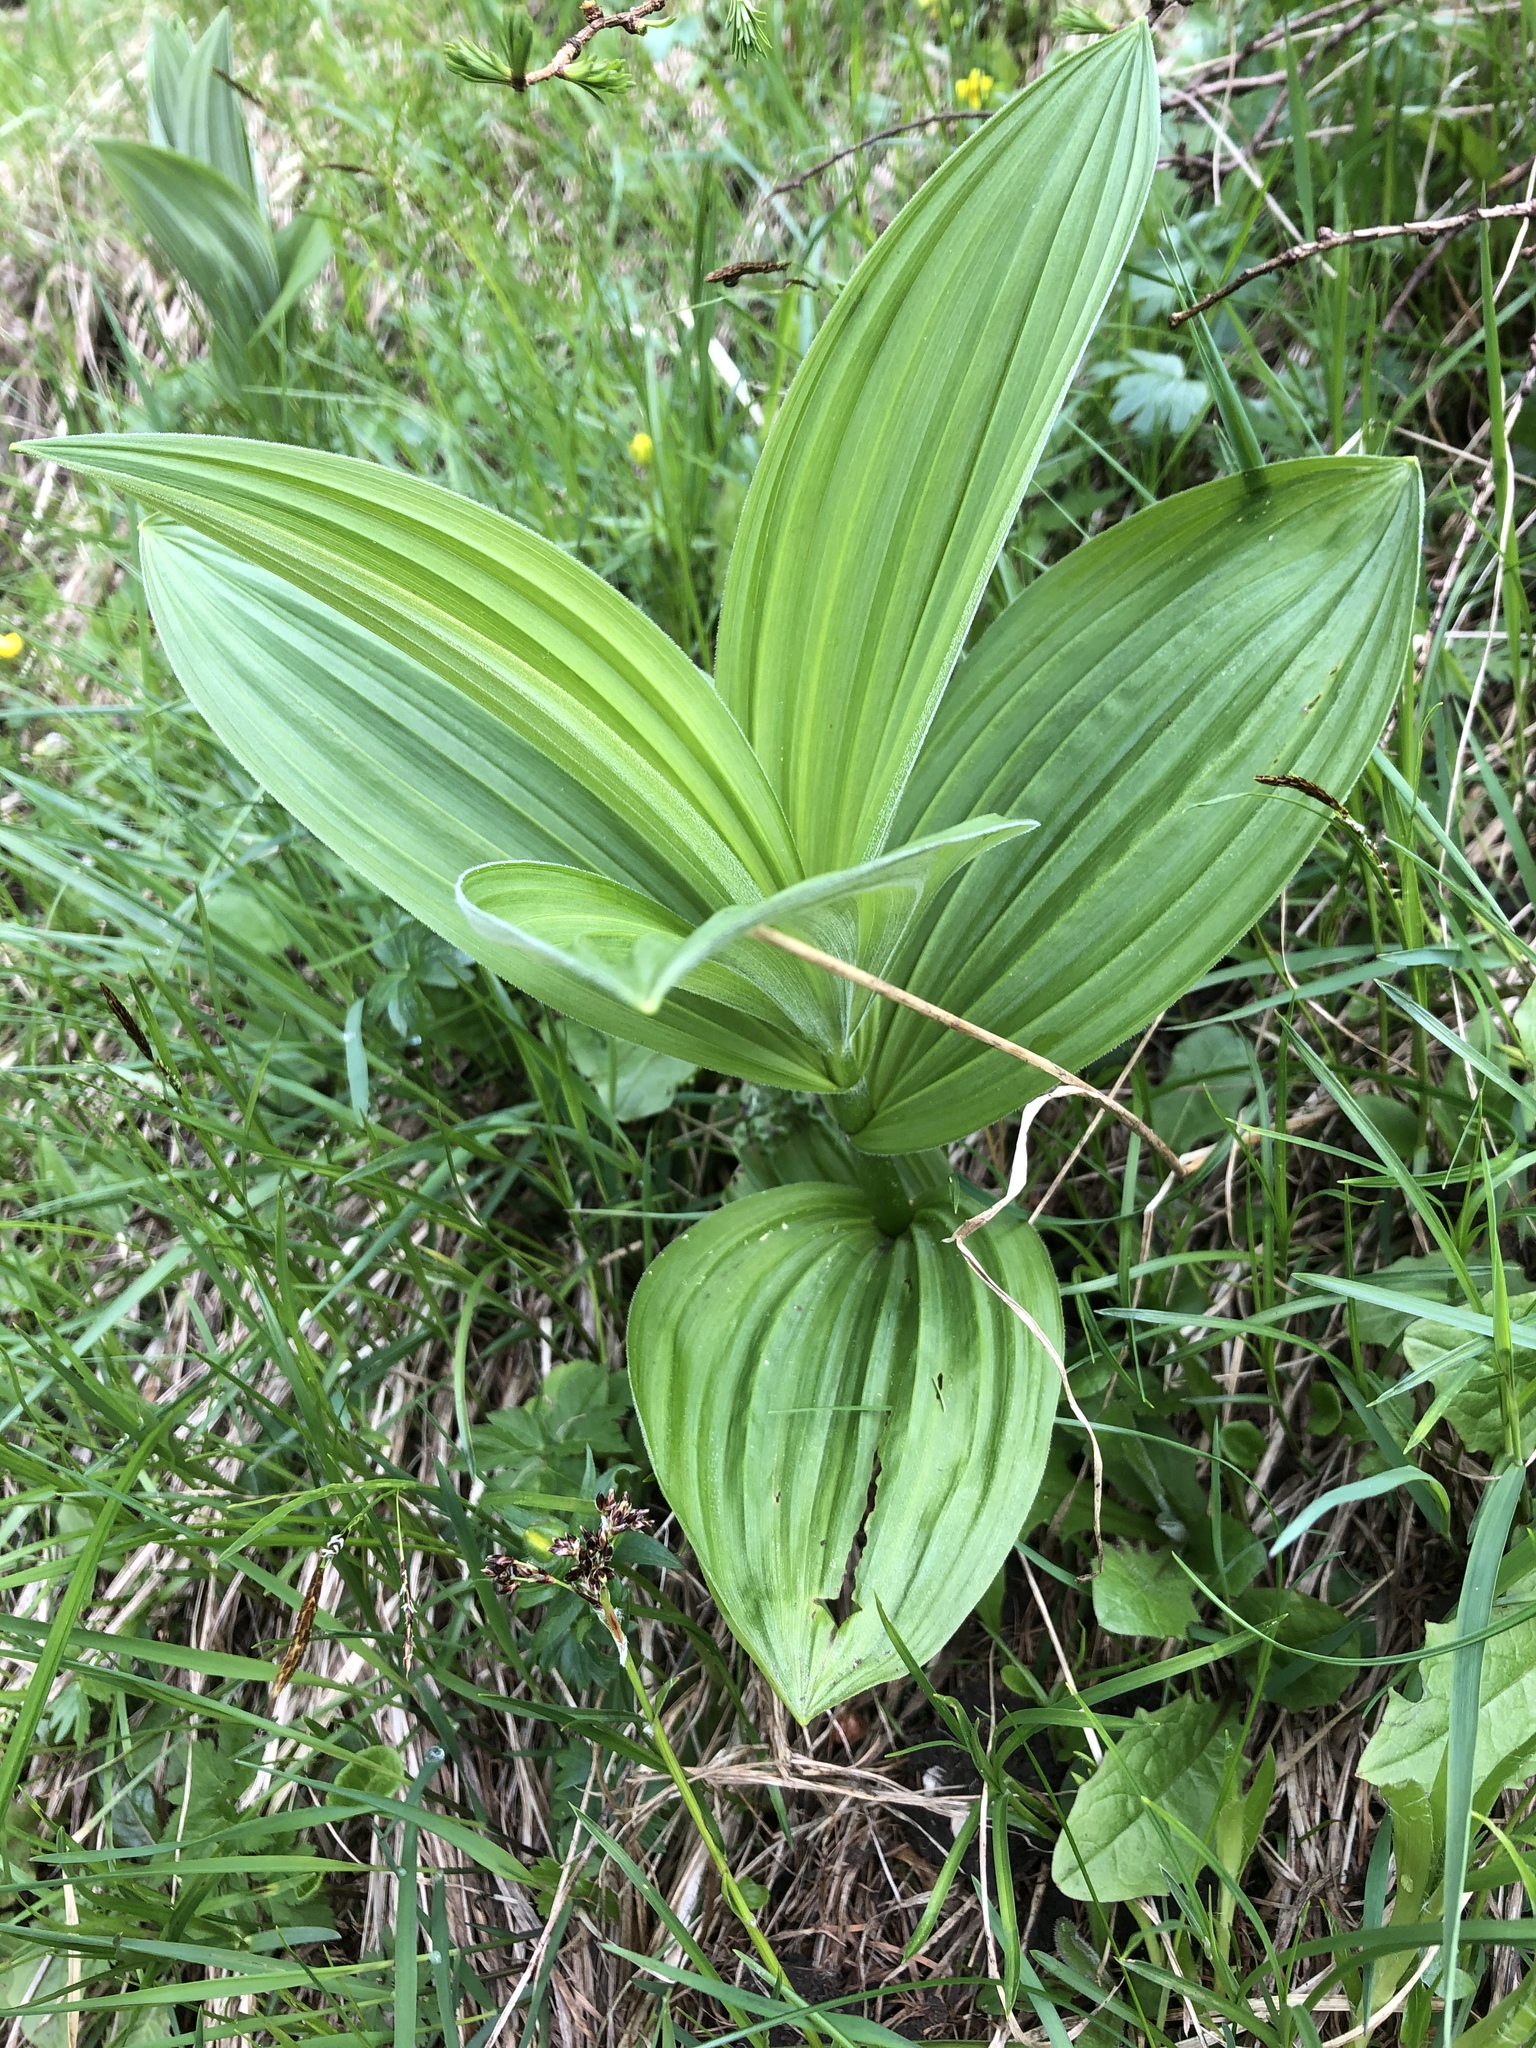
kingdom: Plantae
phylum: Tracheophyta
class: Liliopsida
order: Liliales
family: Melanthiaceae
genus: Veratrum
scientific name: Veratrum
